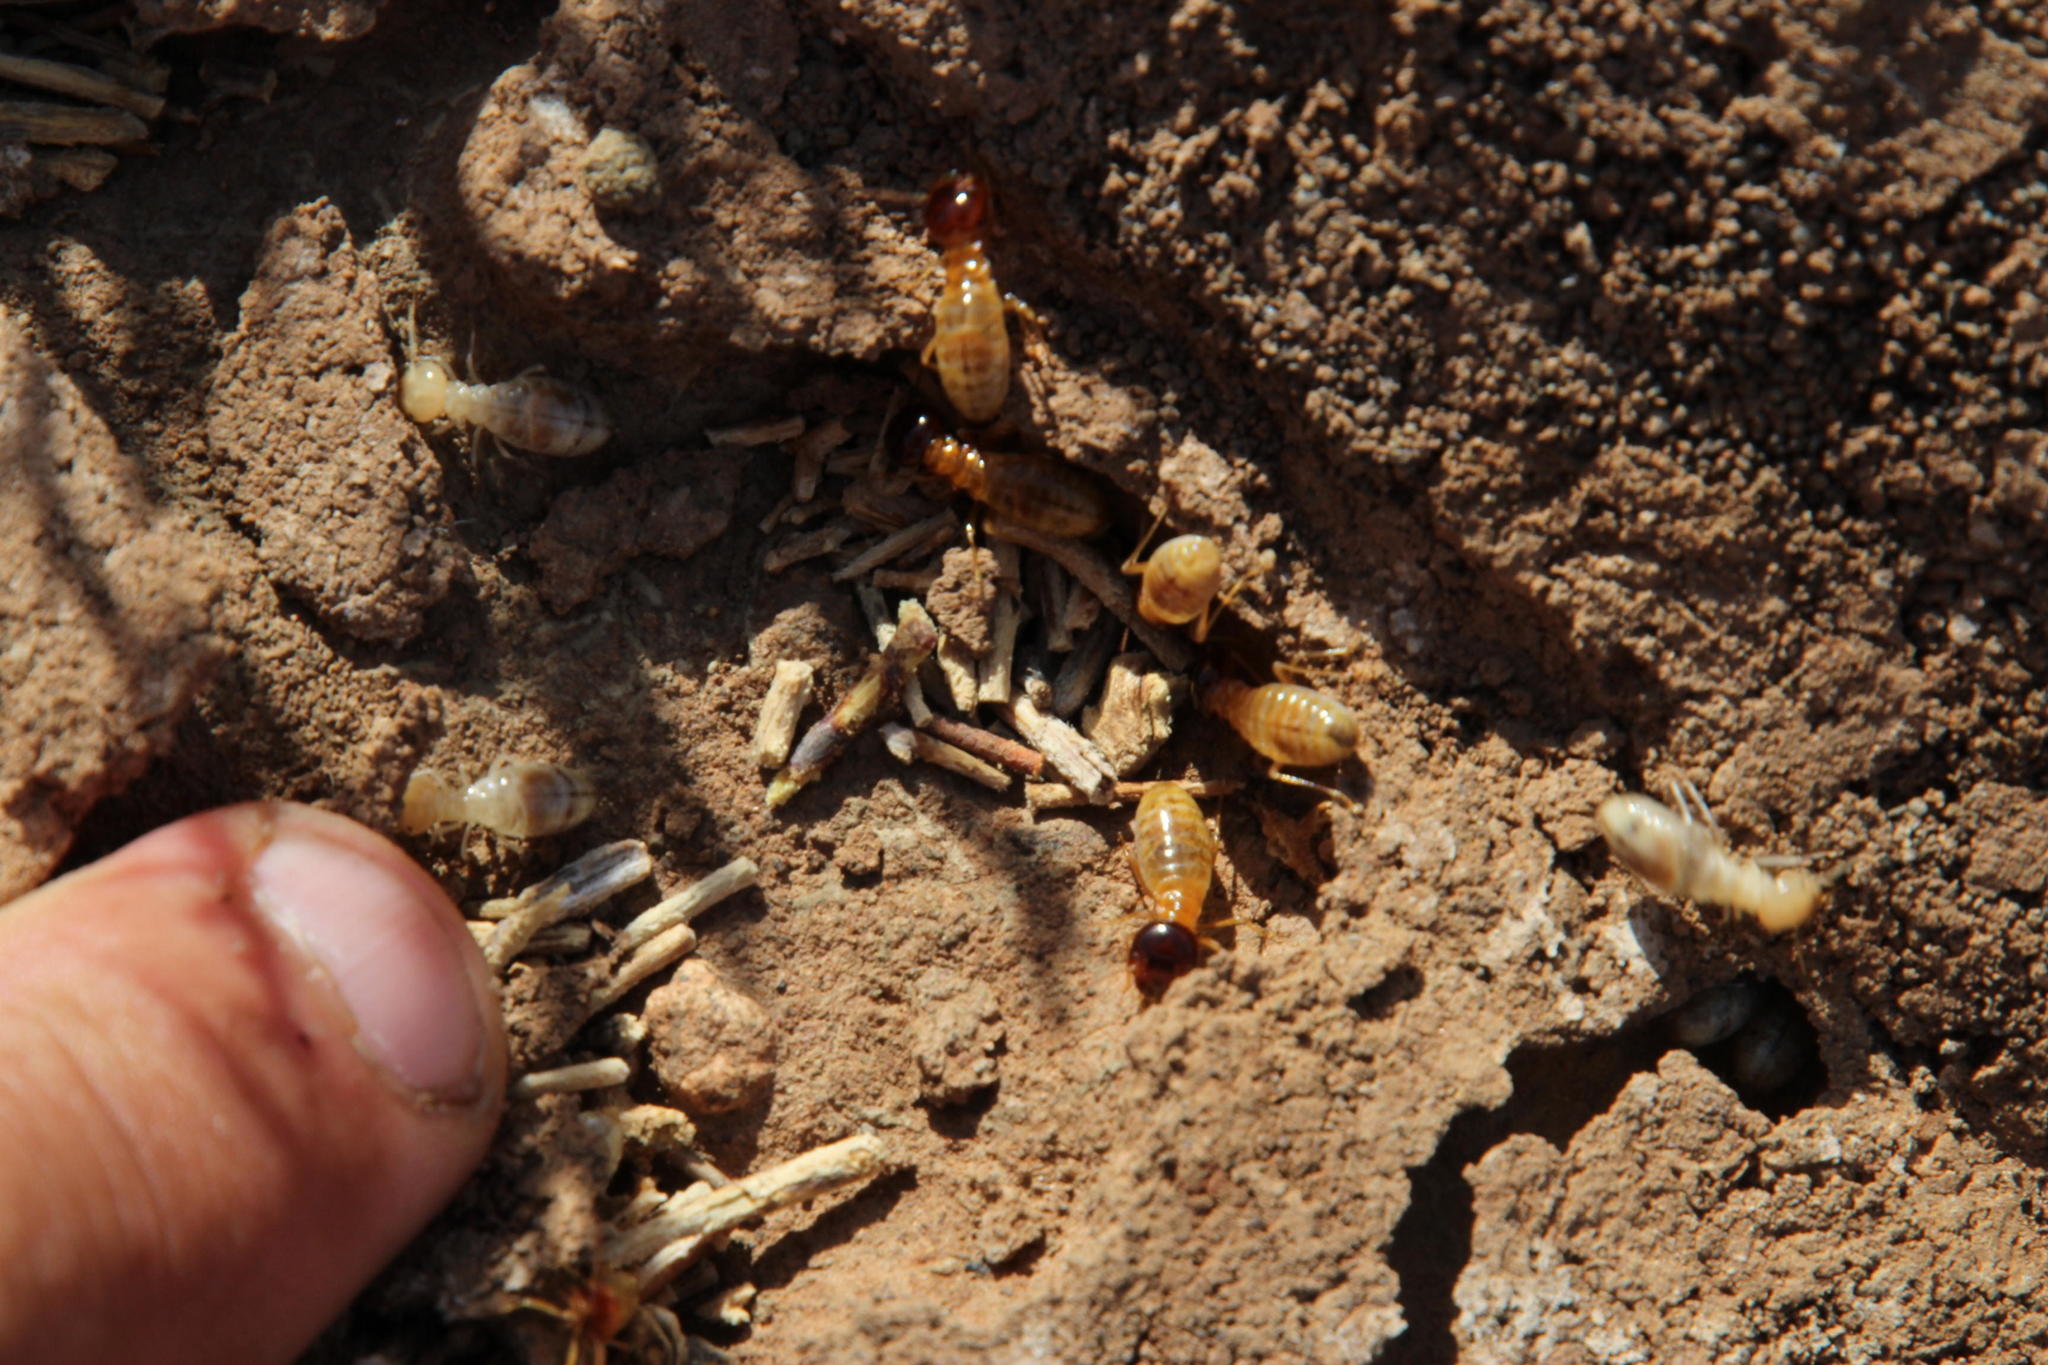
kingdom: Animalia
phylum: Arthropoda
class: Insecta
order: Blattodea
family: Hodotermitidae
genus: Microhodotermes
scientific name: Microhodotermes viator
